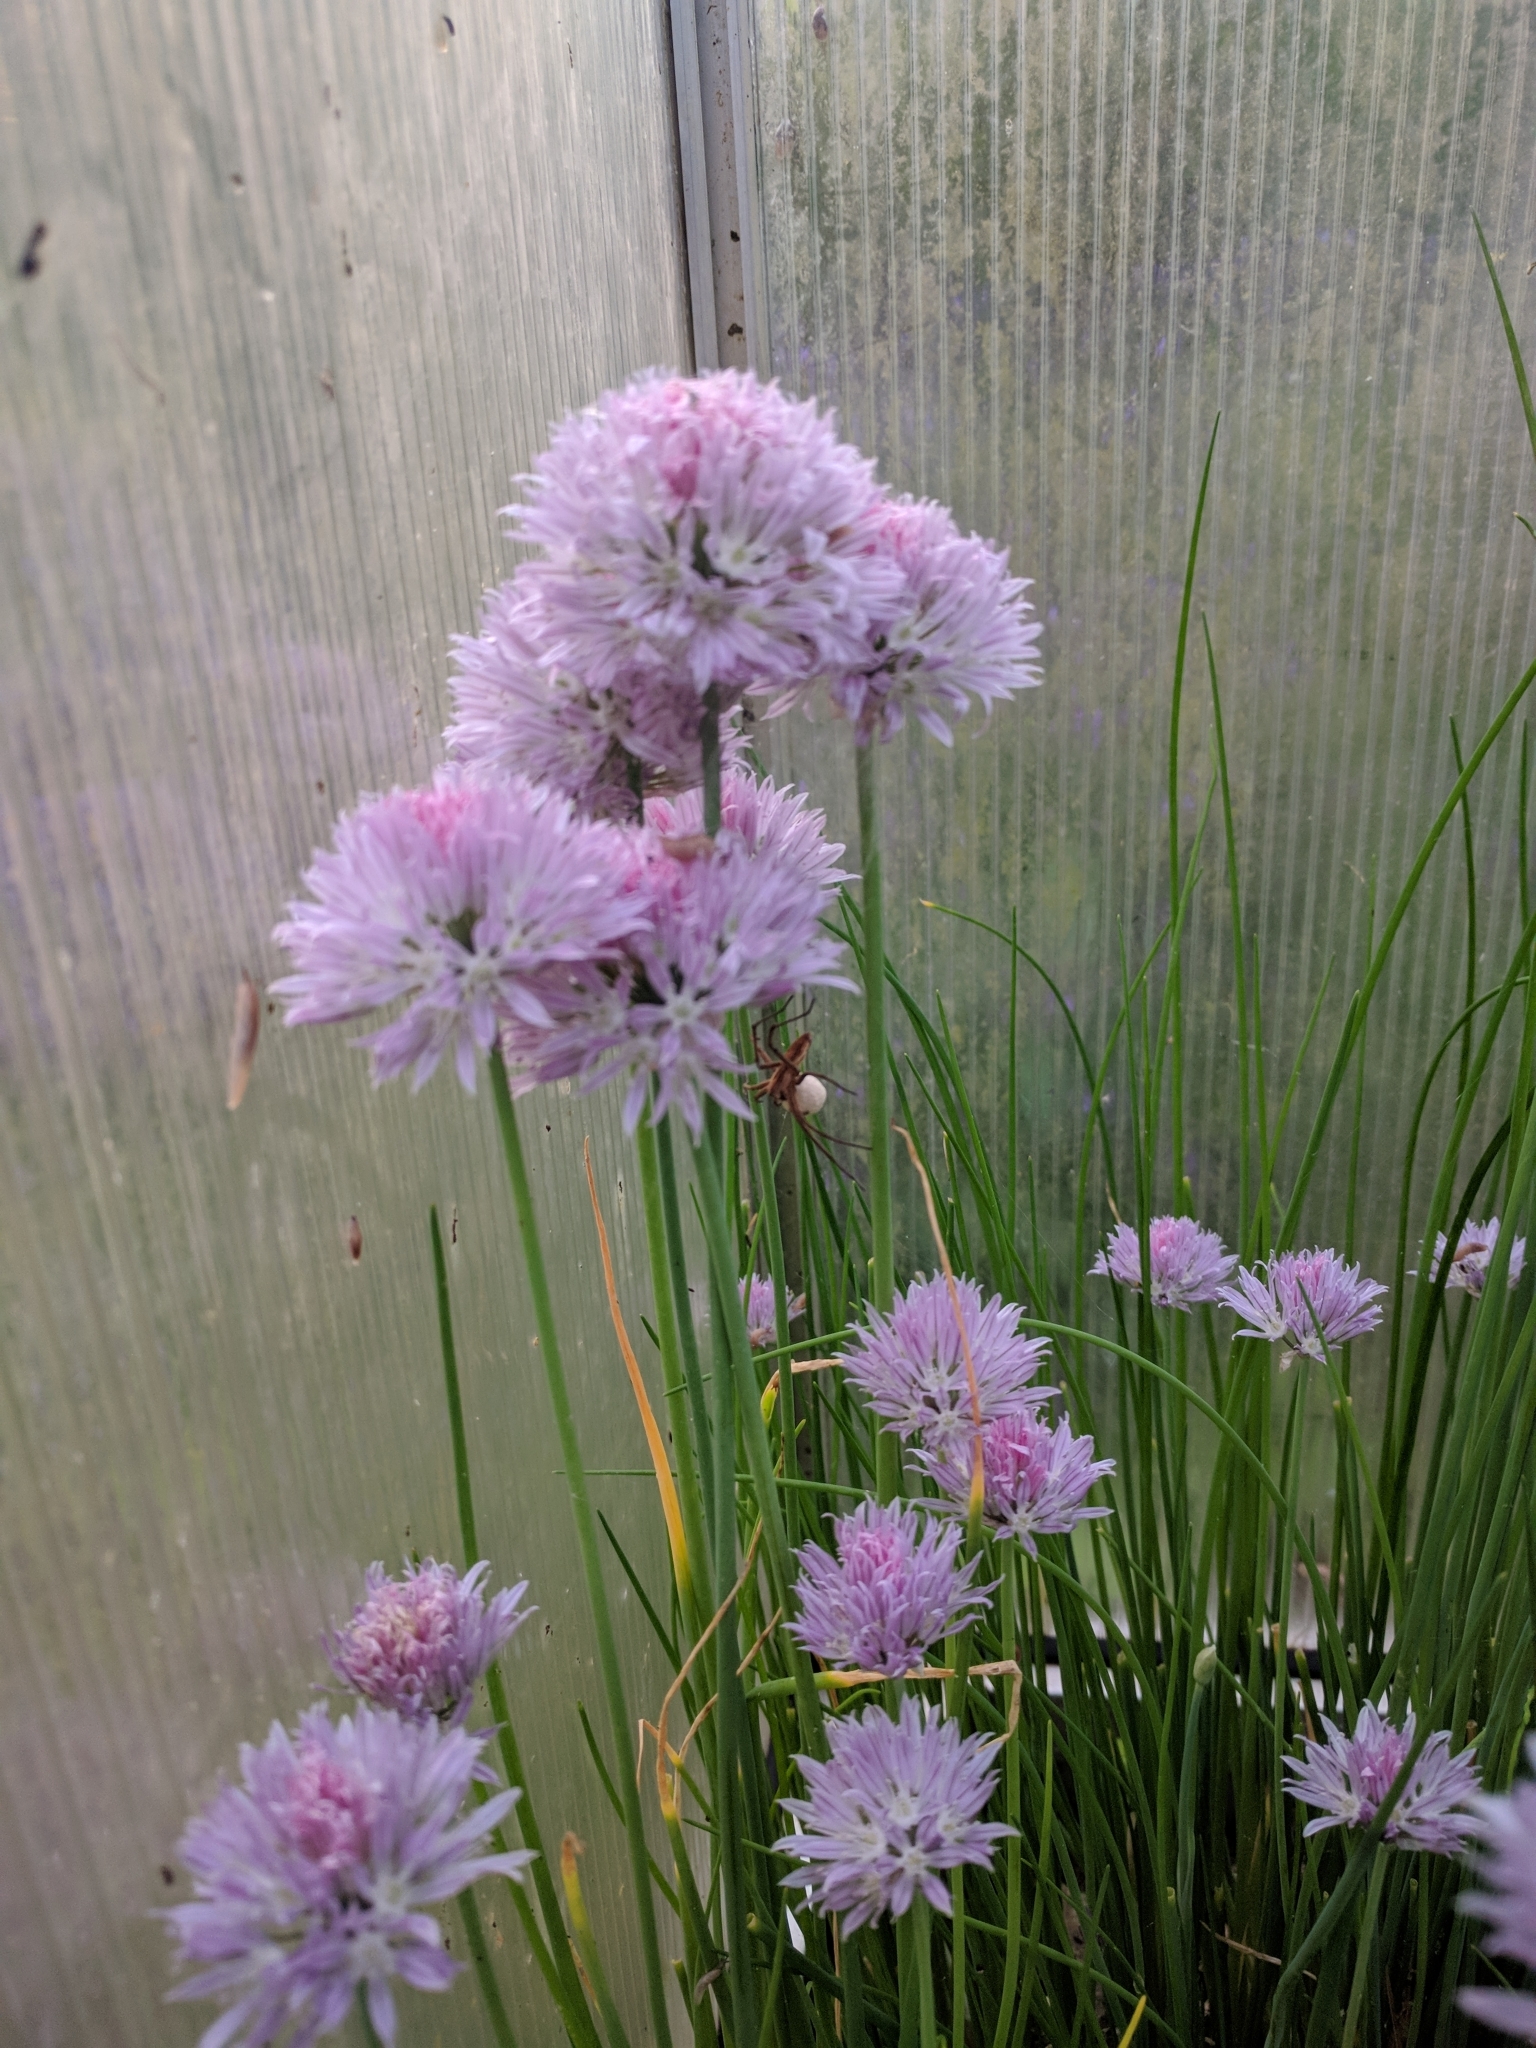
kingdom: Animalia
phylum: Arthropoda
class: Arachnida
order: Araneae
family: Pisauridae
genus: Pisaura
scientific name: Pisaura mirabilis
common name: Tent spider
